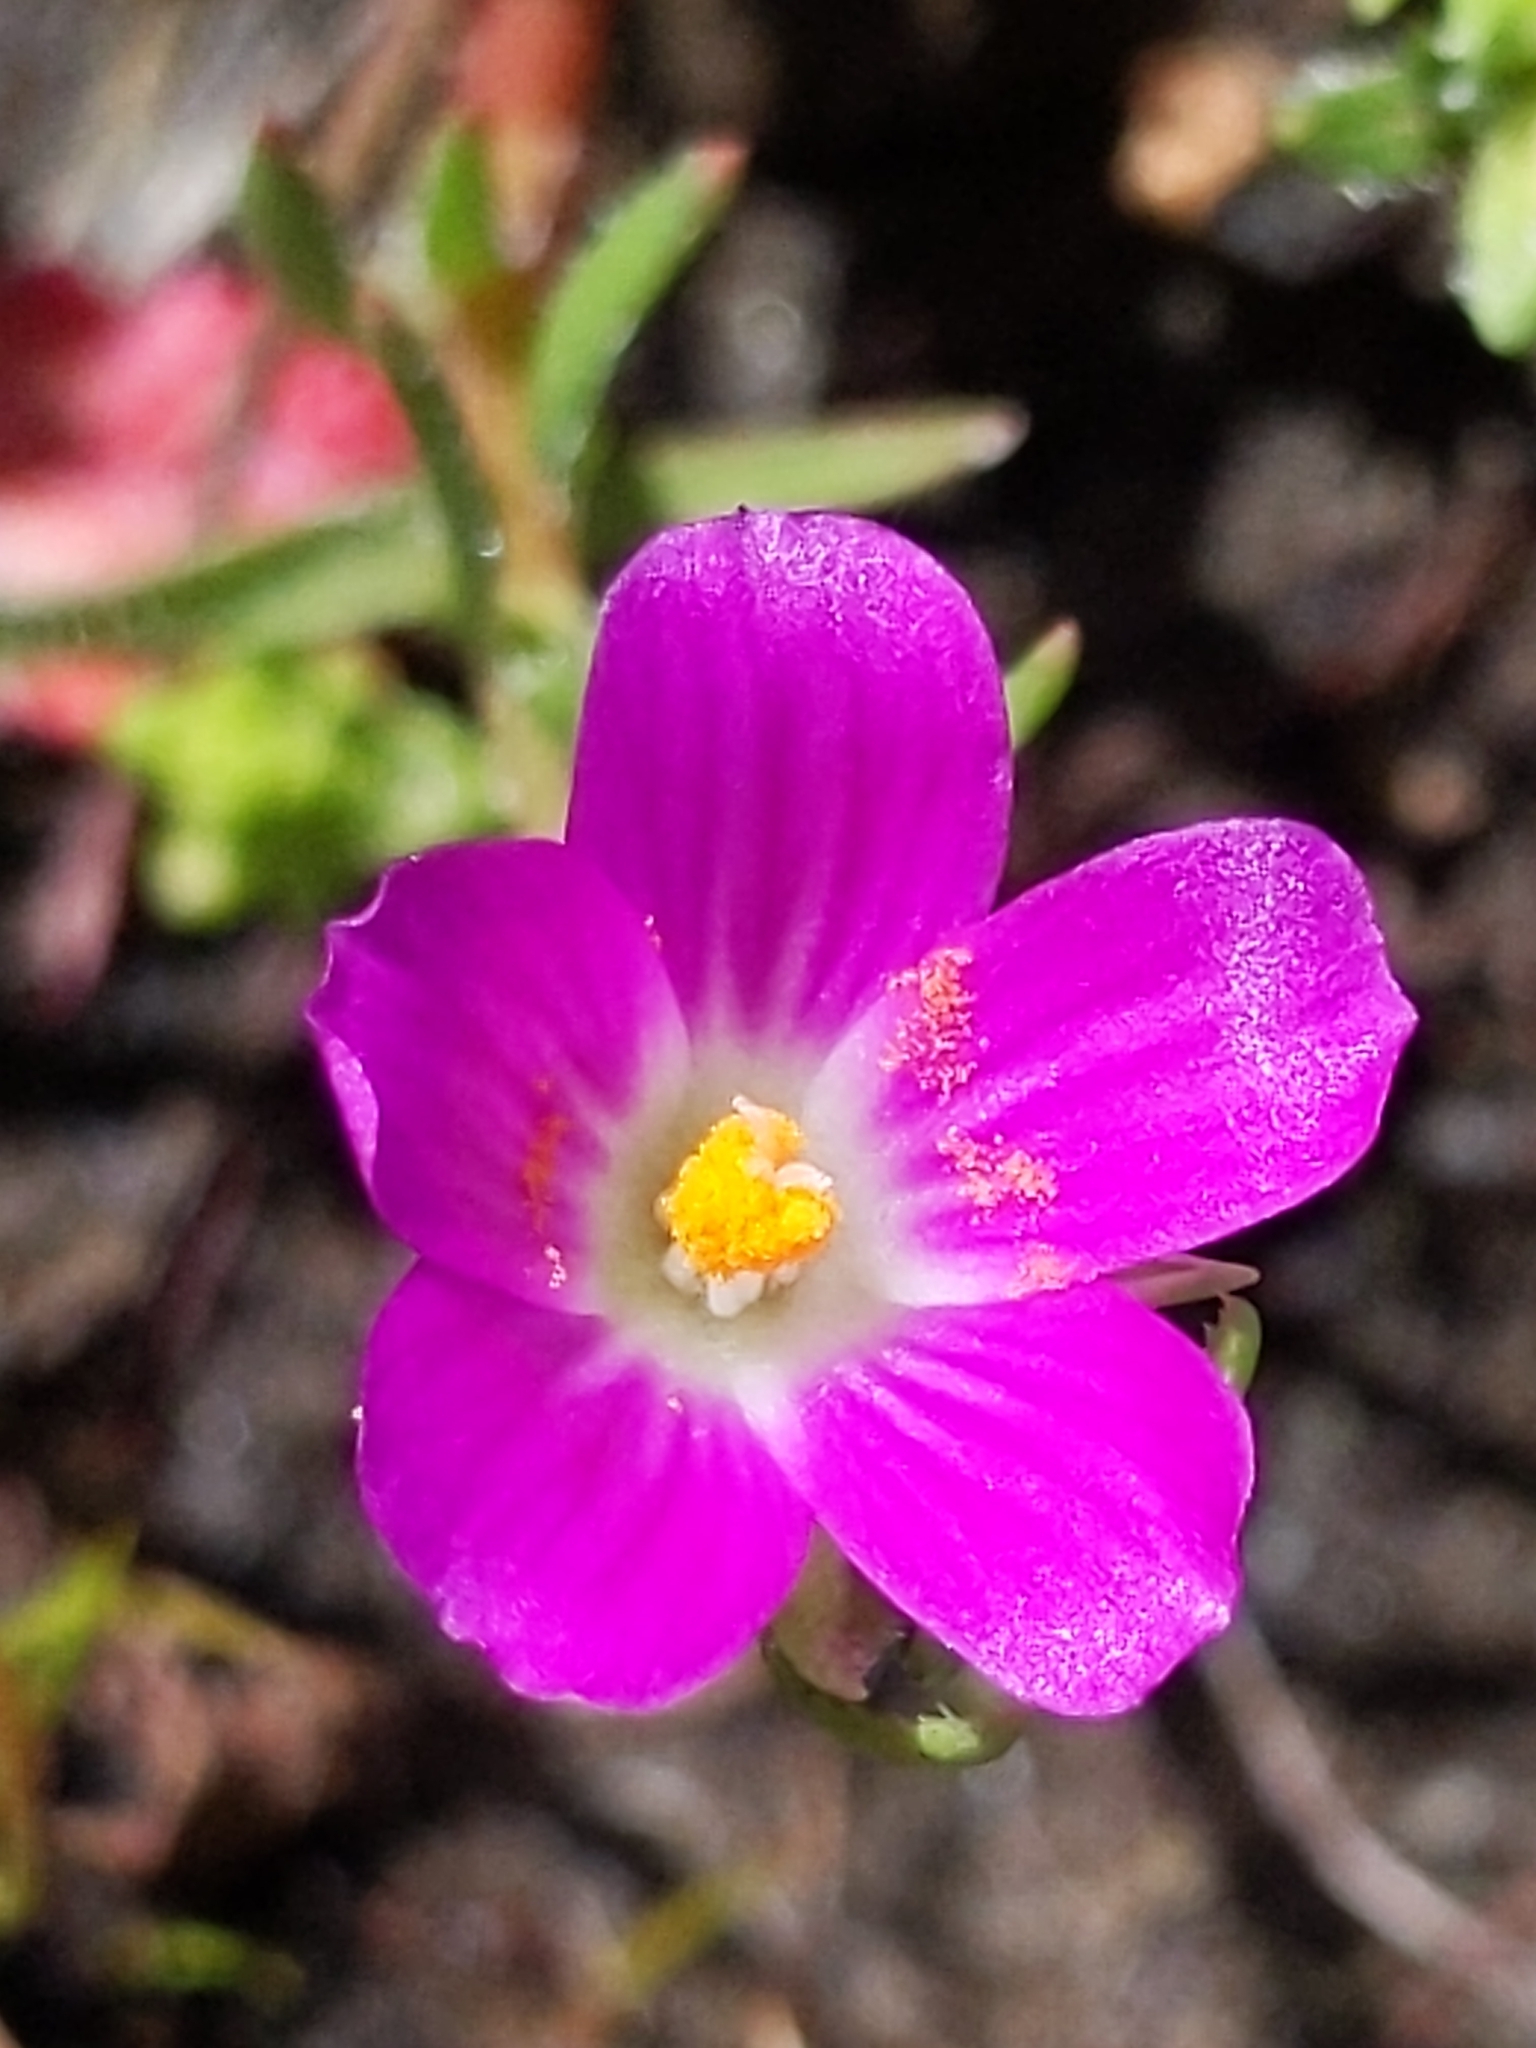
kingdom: Plantae
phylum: Tracheophyta
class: Magnoliopsida
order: Caryophyllales
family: Montiaceae
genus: Calandrinia
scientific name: Calandrinia menziesii
